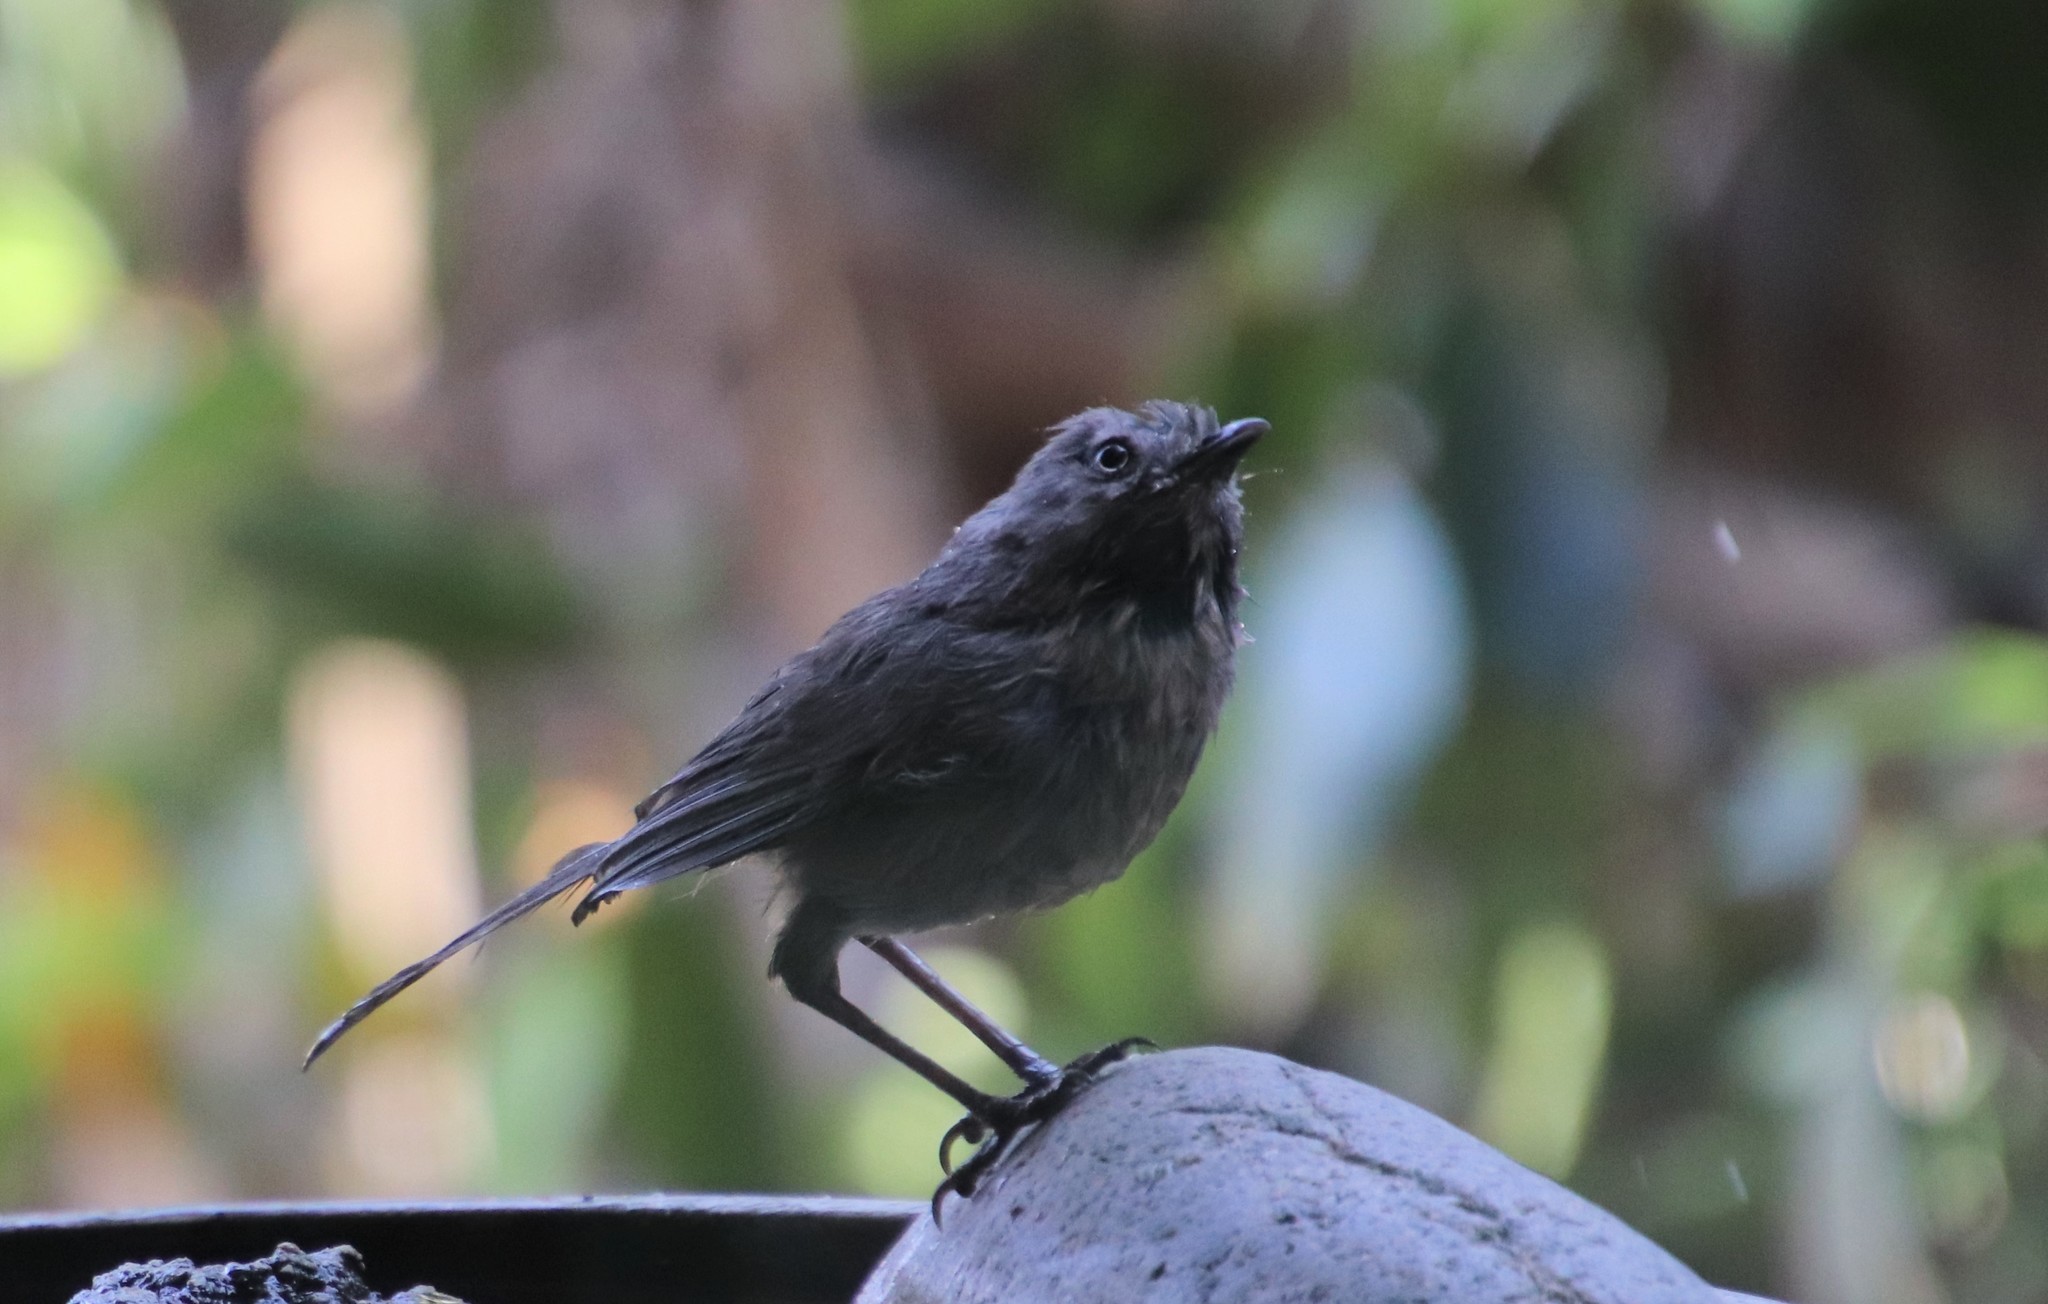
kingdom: Animalia
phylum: Chordata
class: Aves
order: Passeriformes
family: Sylviidae
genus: Chamaea
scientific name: Chamaea fasciata
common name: Wrentit
